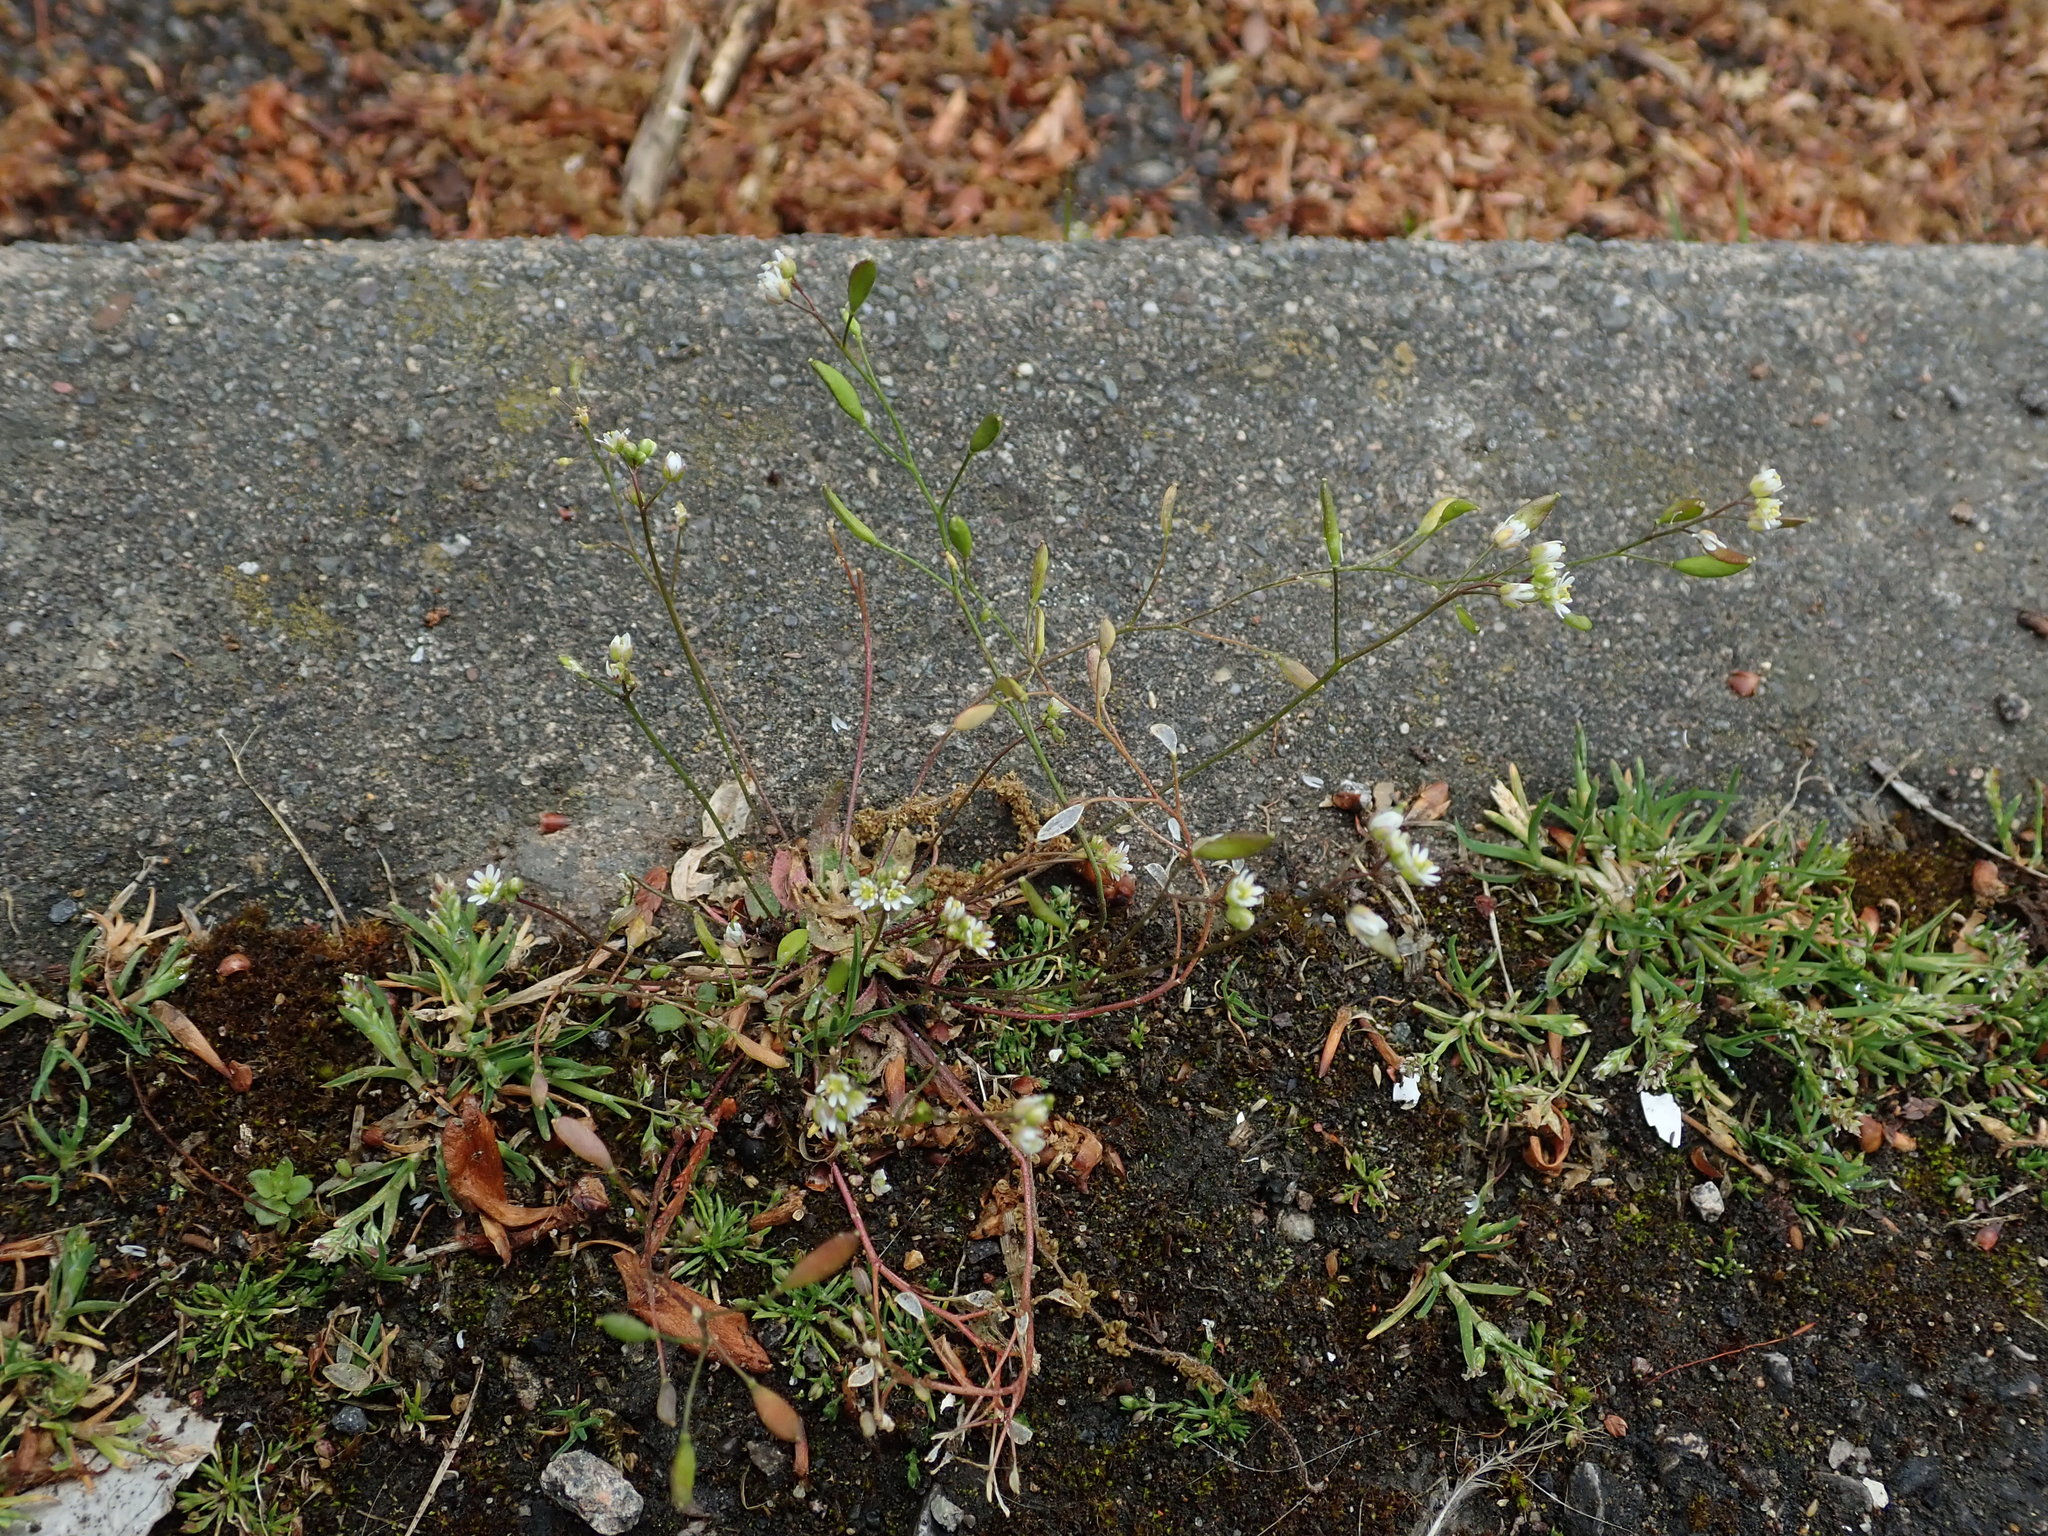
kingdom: Plantae
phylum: Tracheophyta
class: Magnoliopsida
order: Brassicales
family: Brassicaceae
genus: Draba
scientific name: Draba verna
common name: Spring draba
